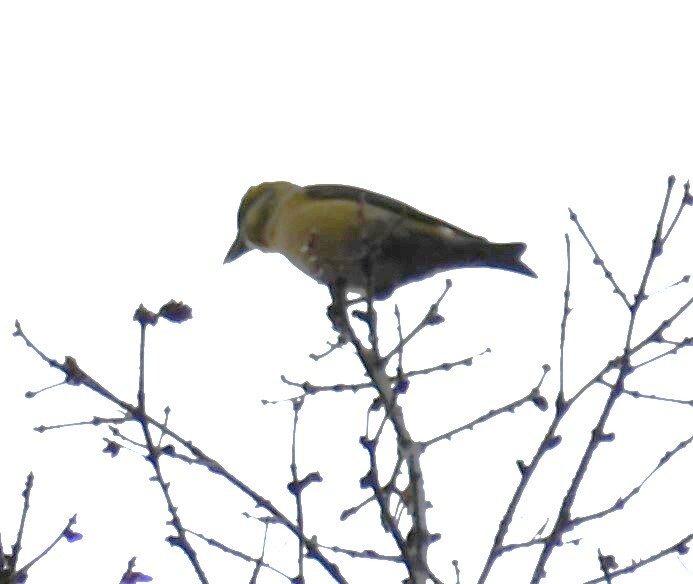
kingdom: Animalia
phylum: Chordata
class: Aves
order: Passeriformes
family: Fringillidae
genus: Loxia
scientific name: Loxia curvirostra
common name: Red crossbill
